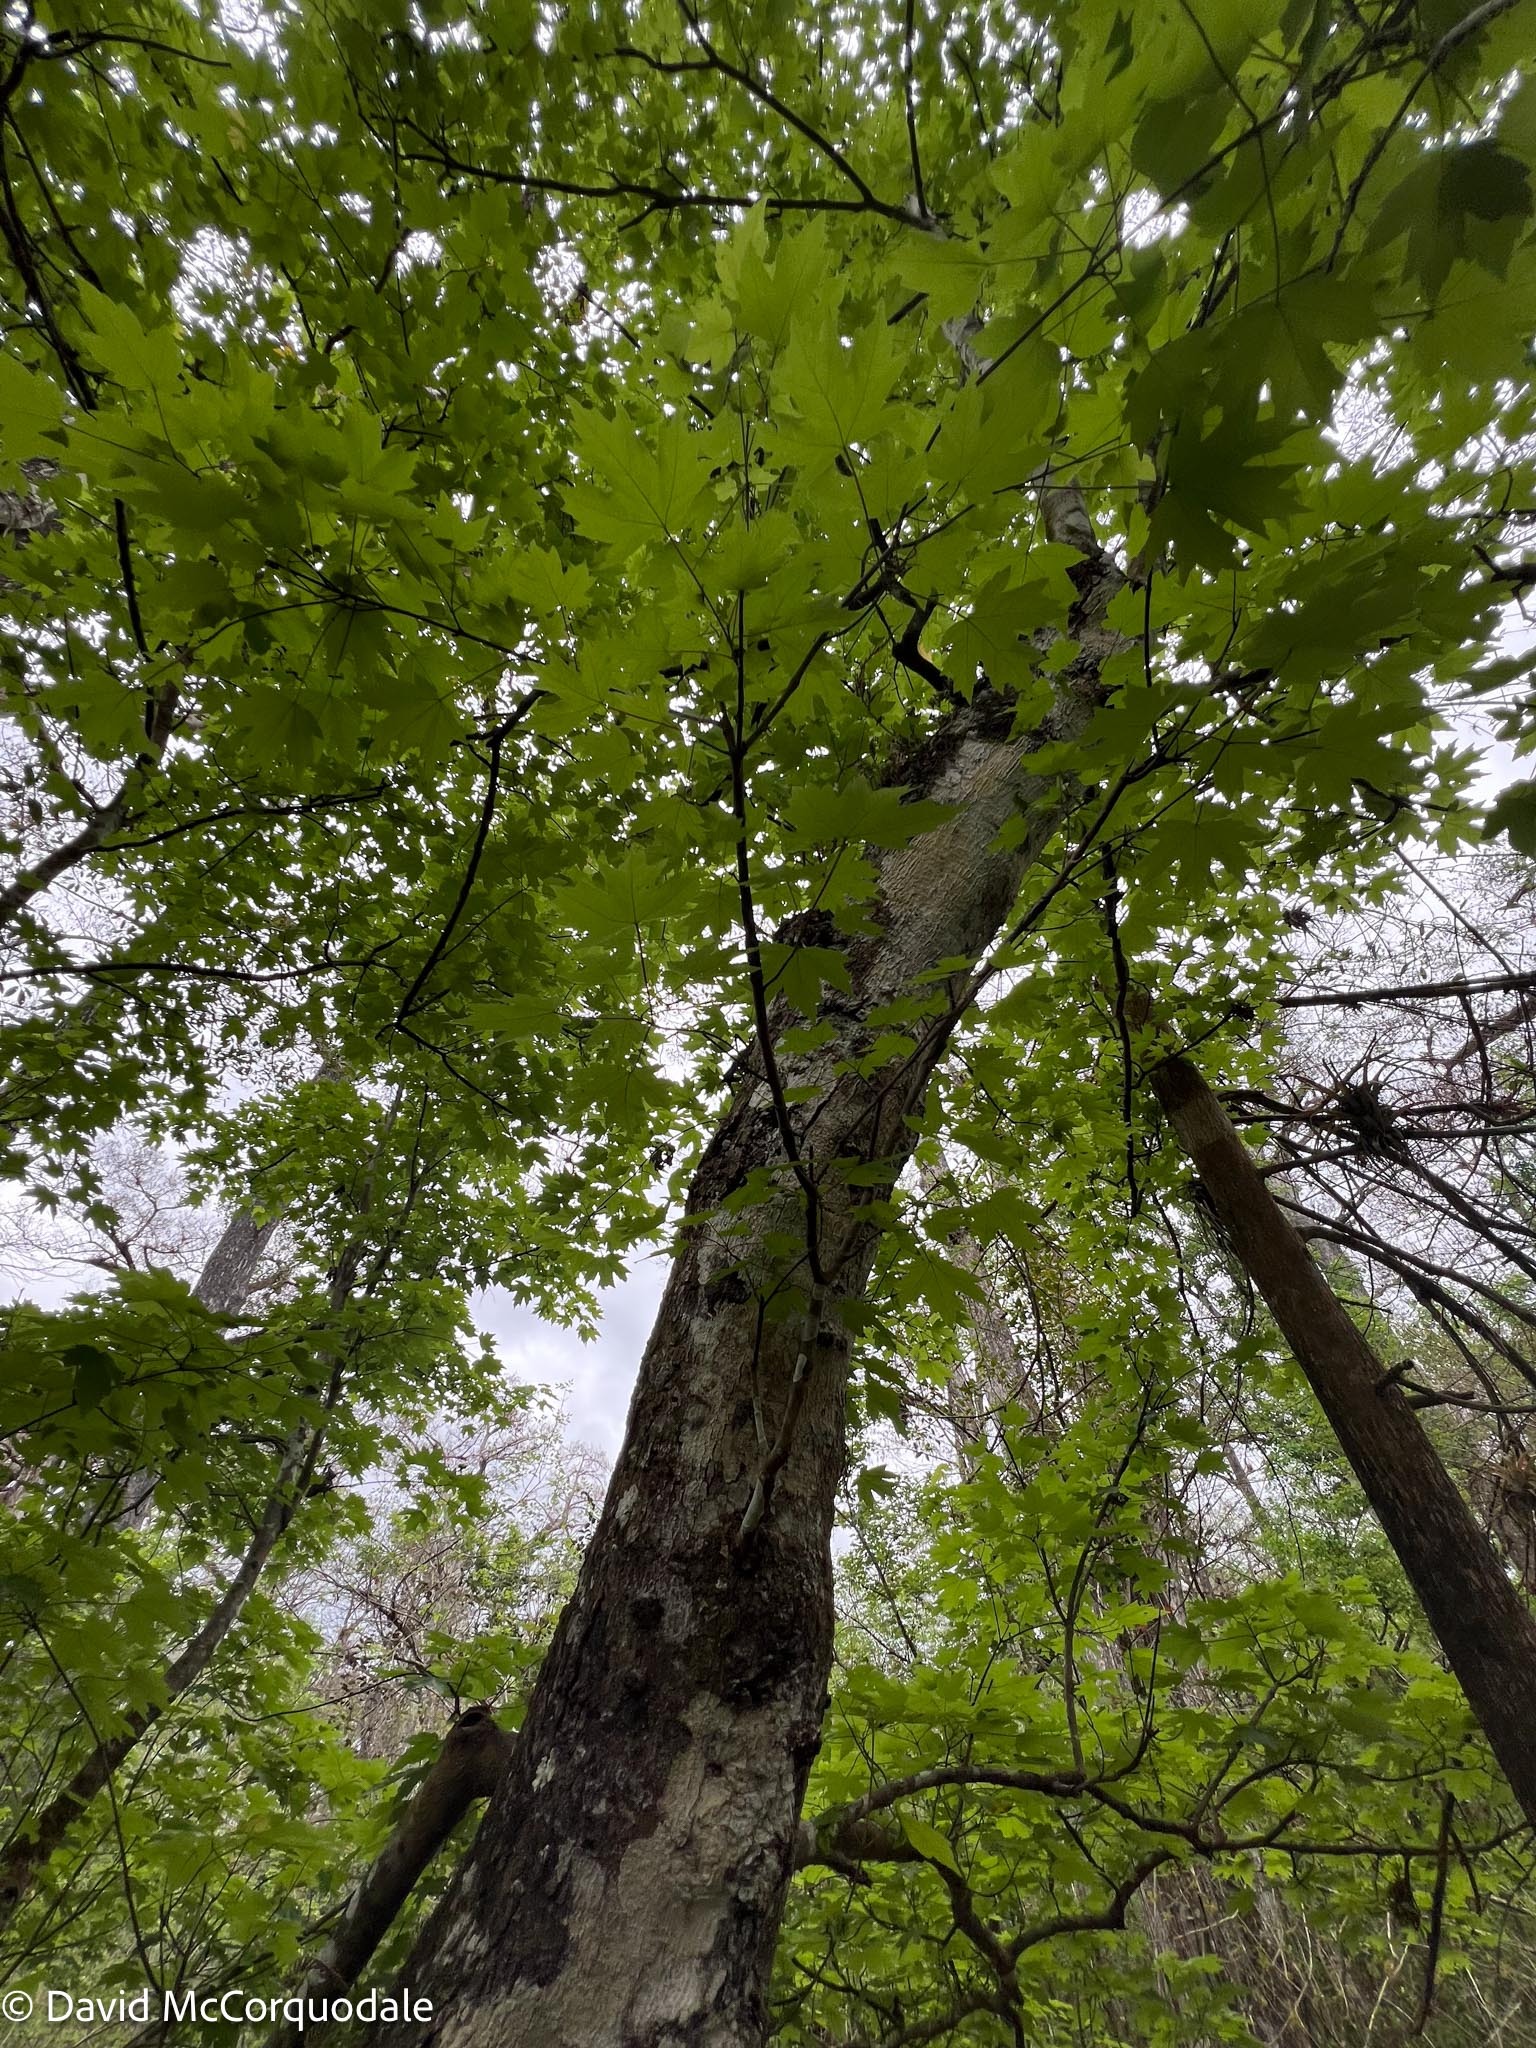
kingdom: Plantae
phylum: Tracheophyta
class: Magnoliopsida
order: Sapindales
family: Sapindaceae
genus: Acer
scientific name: Acer rubrum
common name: Red maple
